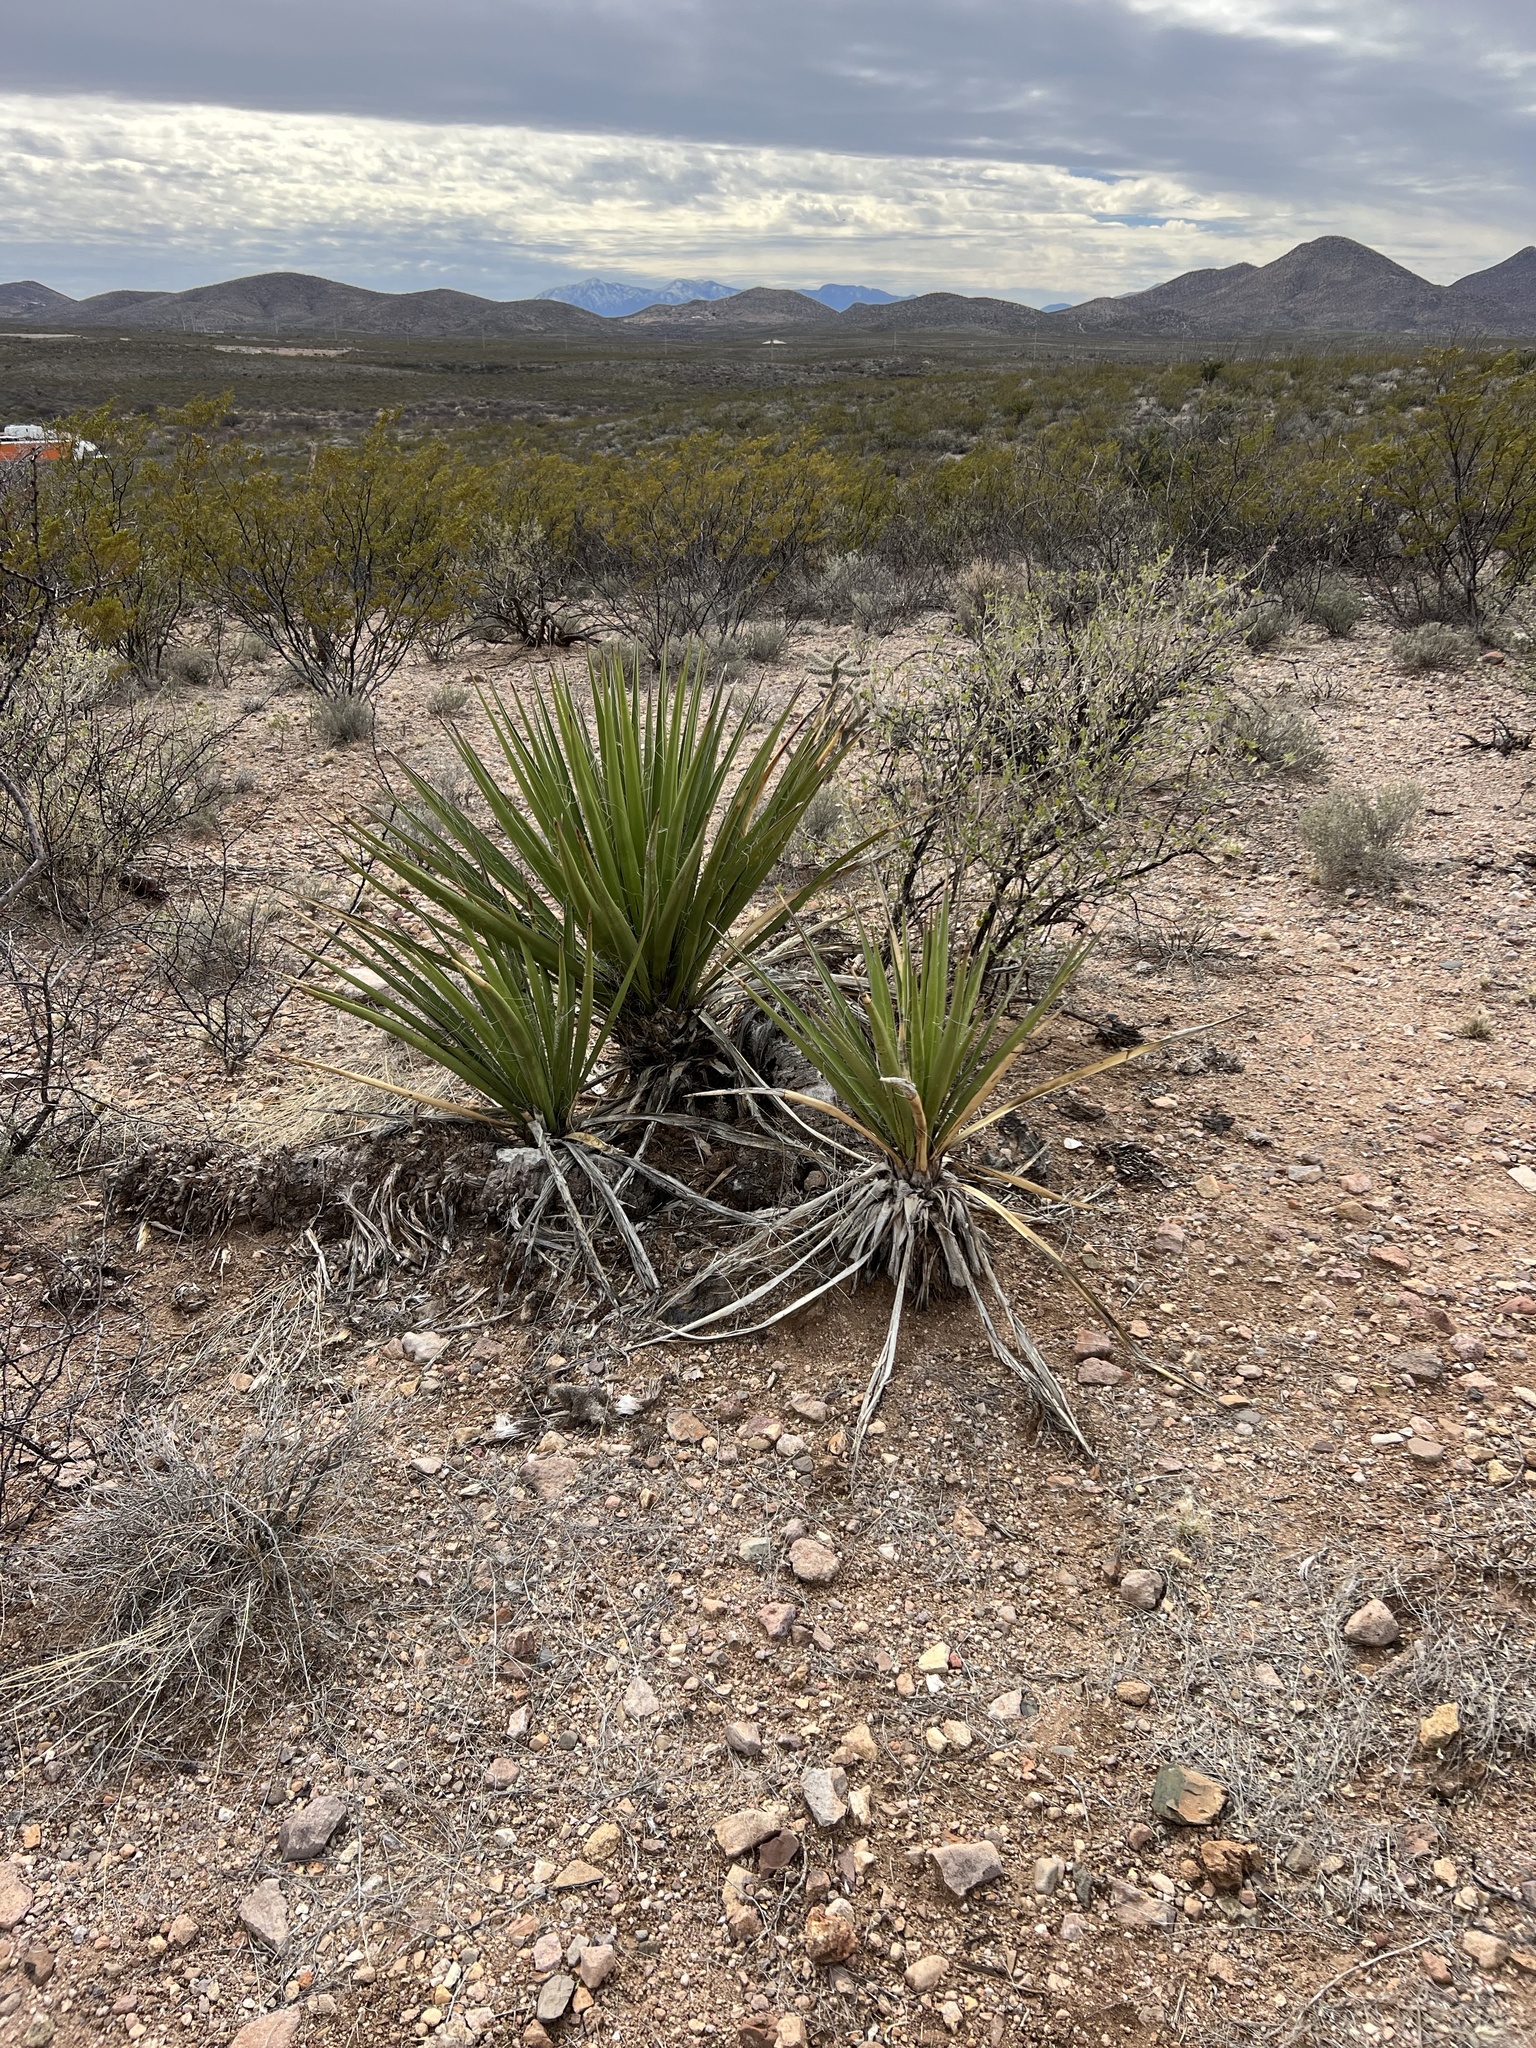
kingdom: Plantae
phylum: Tracheophyta
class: Liliopsida
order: Asparagales
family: Asparagaceae
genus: Yucca
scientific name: Yucca baccata
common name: Banana yucca
